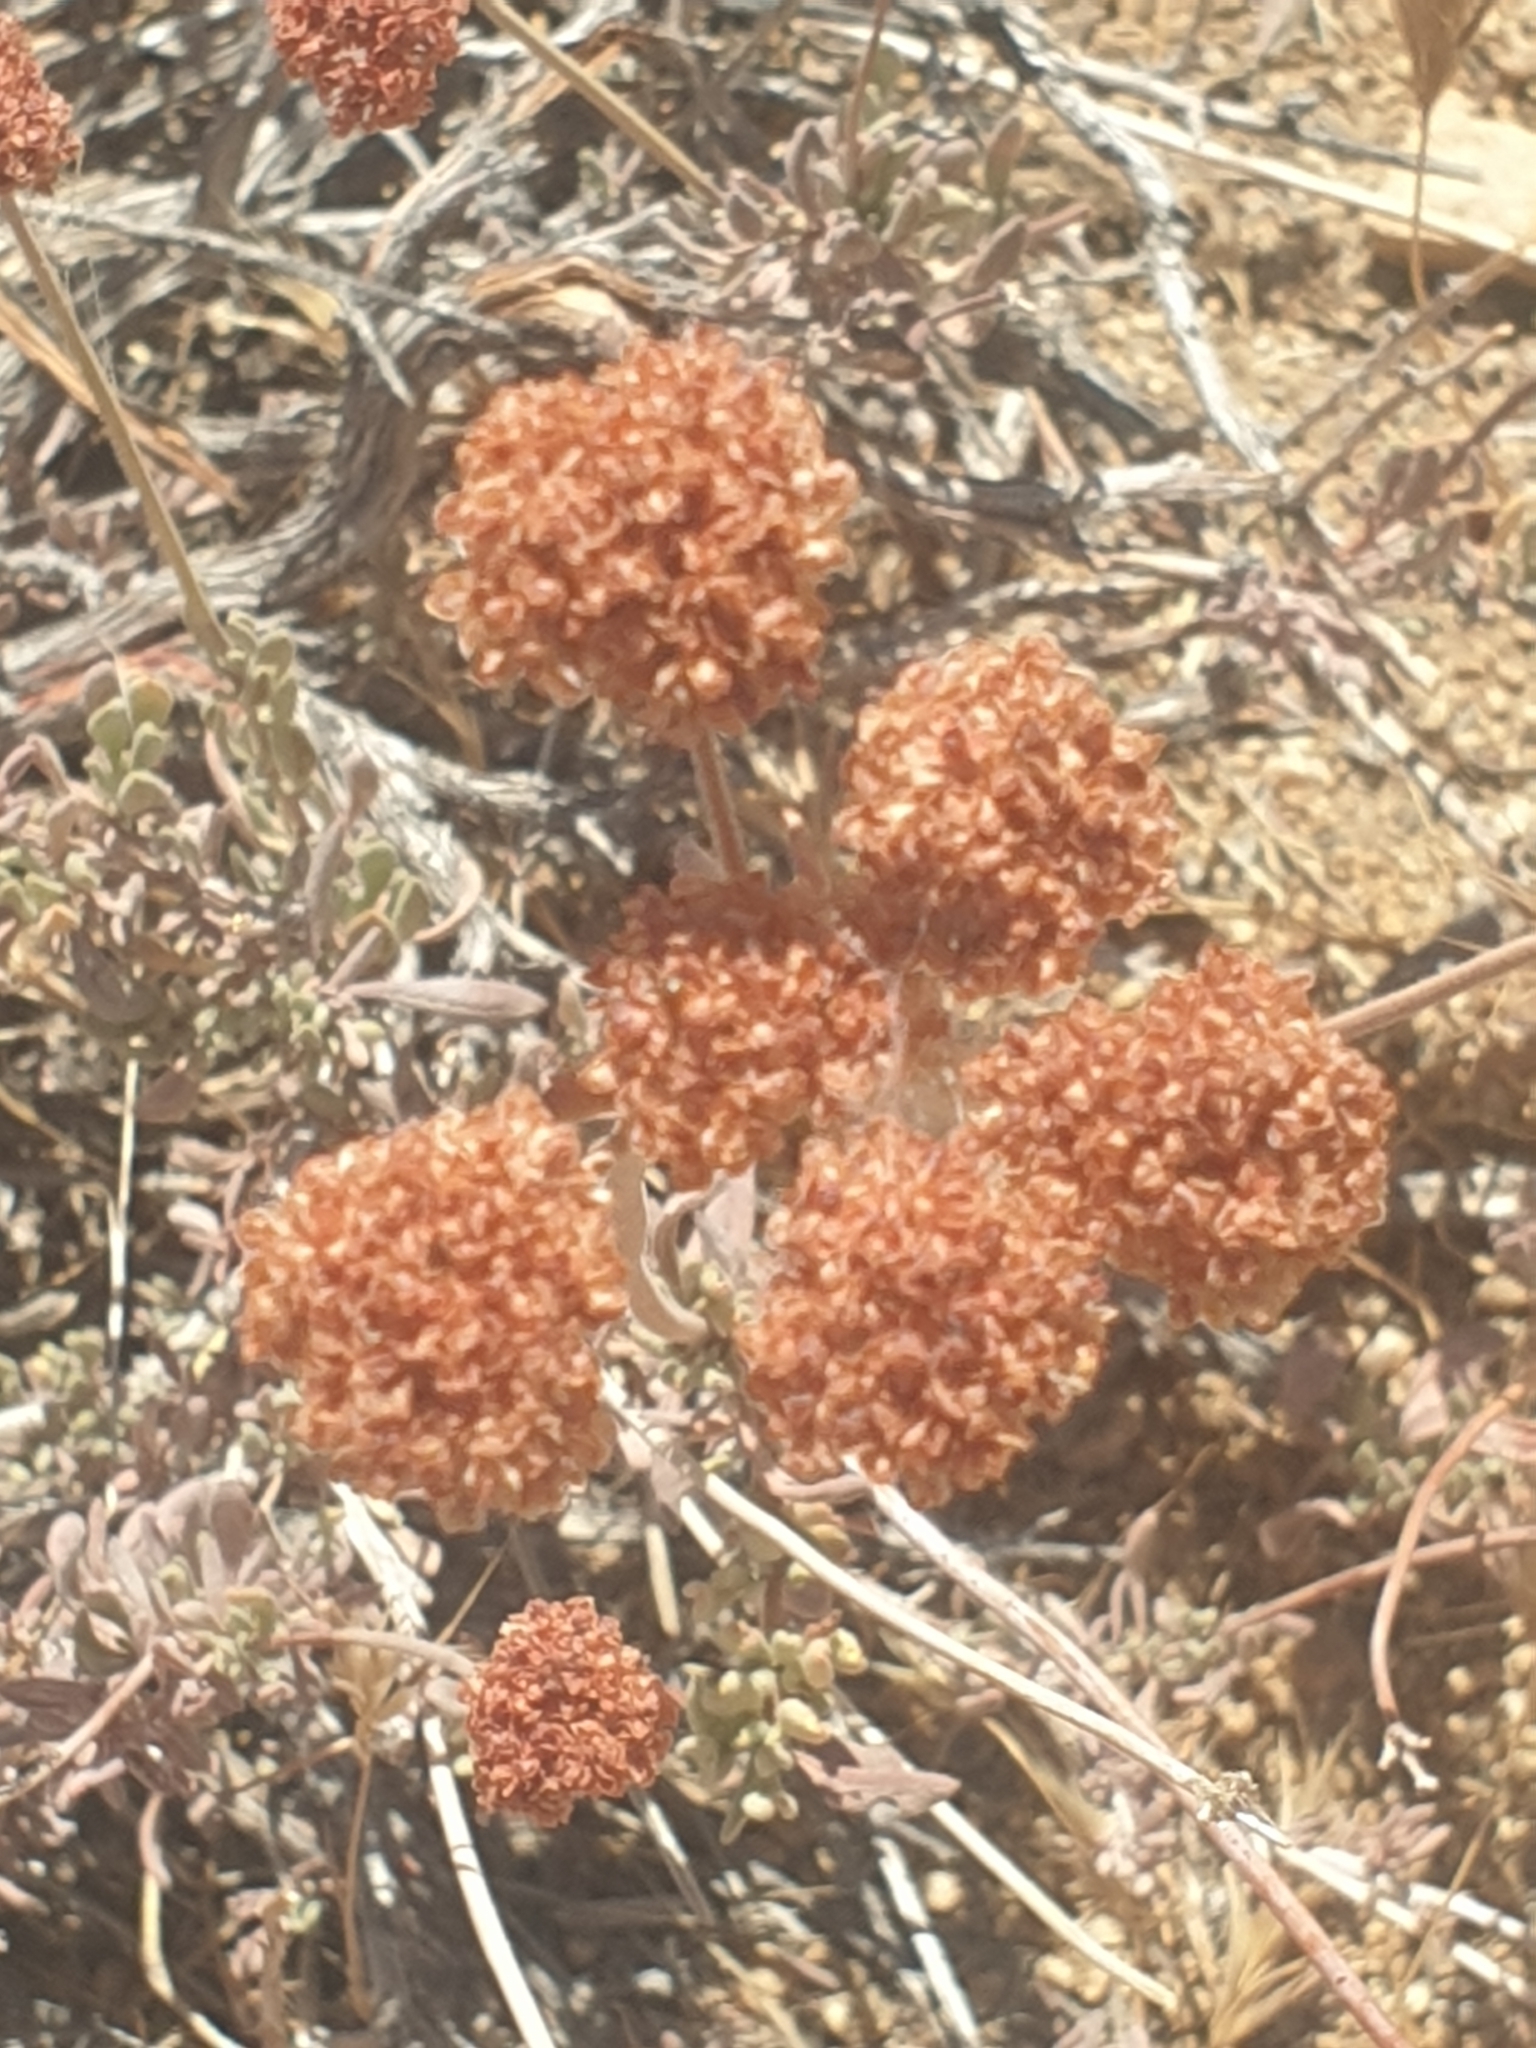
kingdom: Plantae
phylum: Tracheophyta
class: Magnoliopsida
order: Caryophyllales
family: Polygonaceae
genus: Eriogonum
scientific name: Eriogonum fasciculatum
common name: California wild buckwheat
